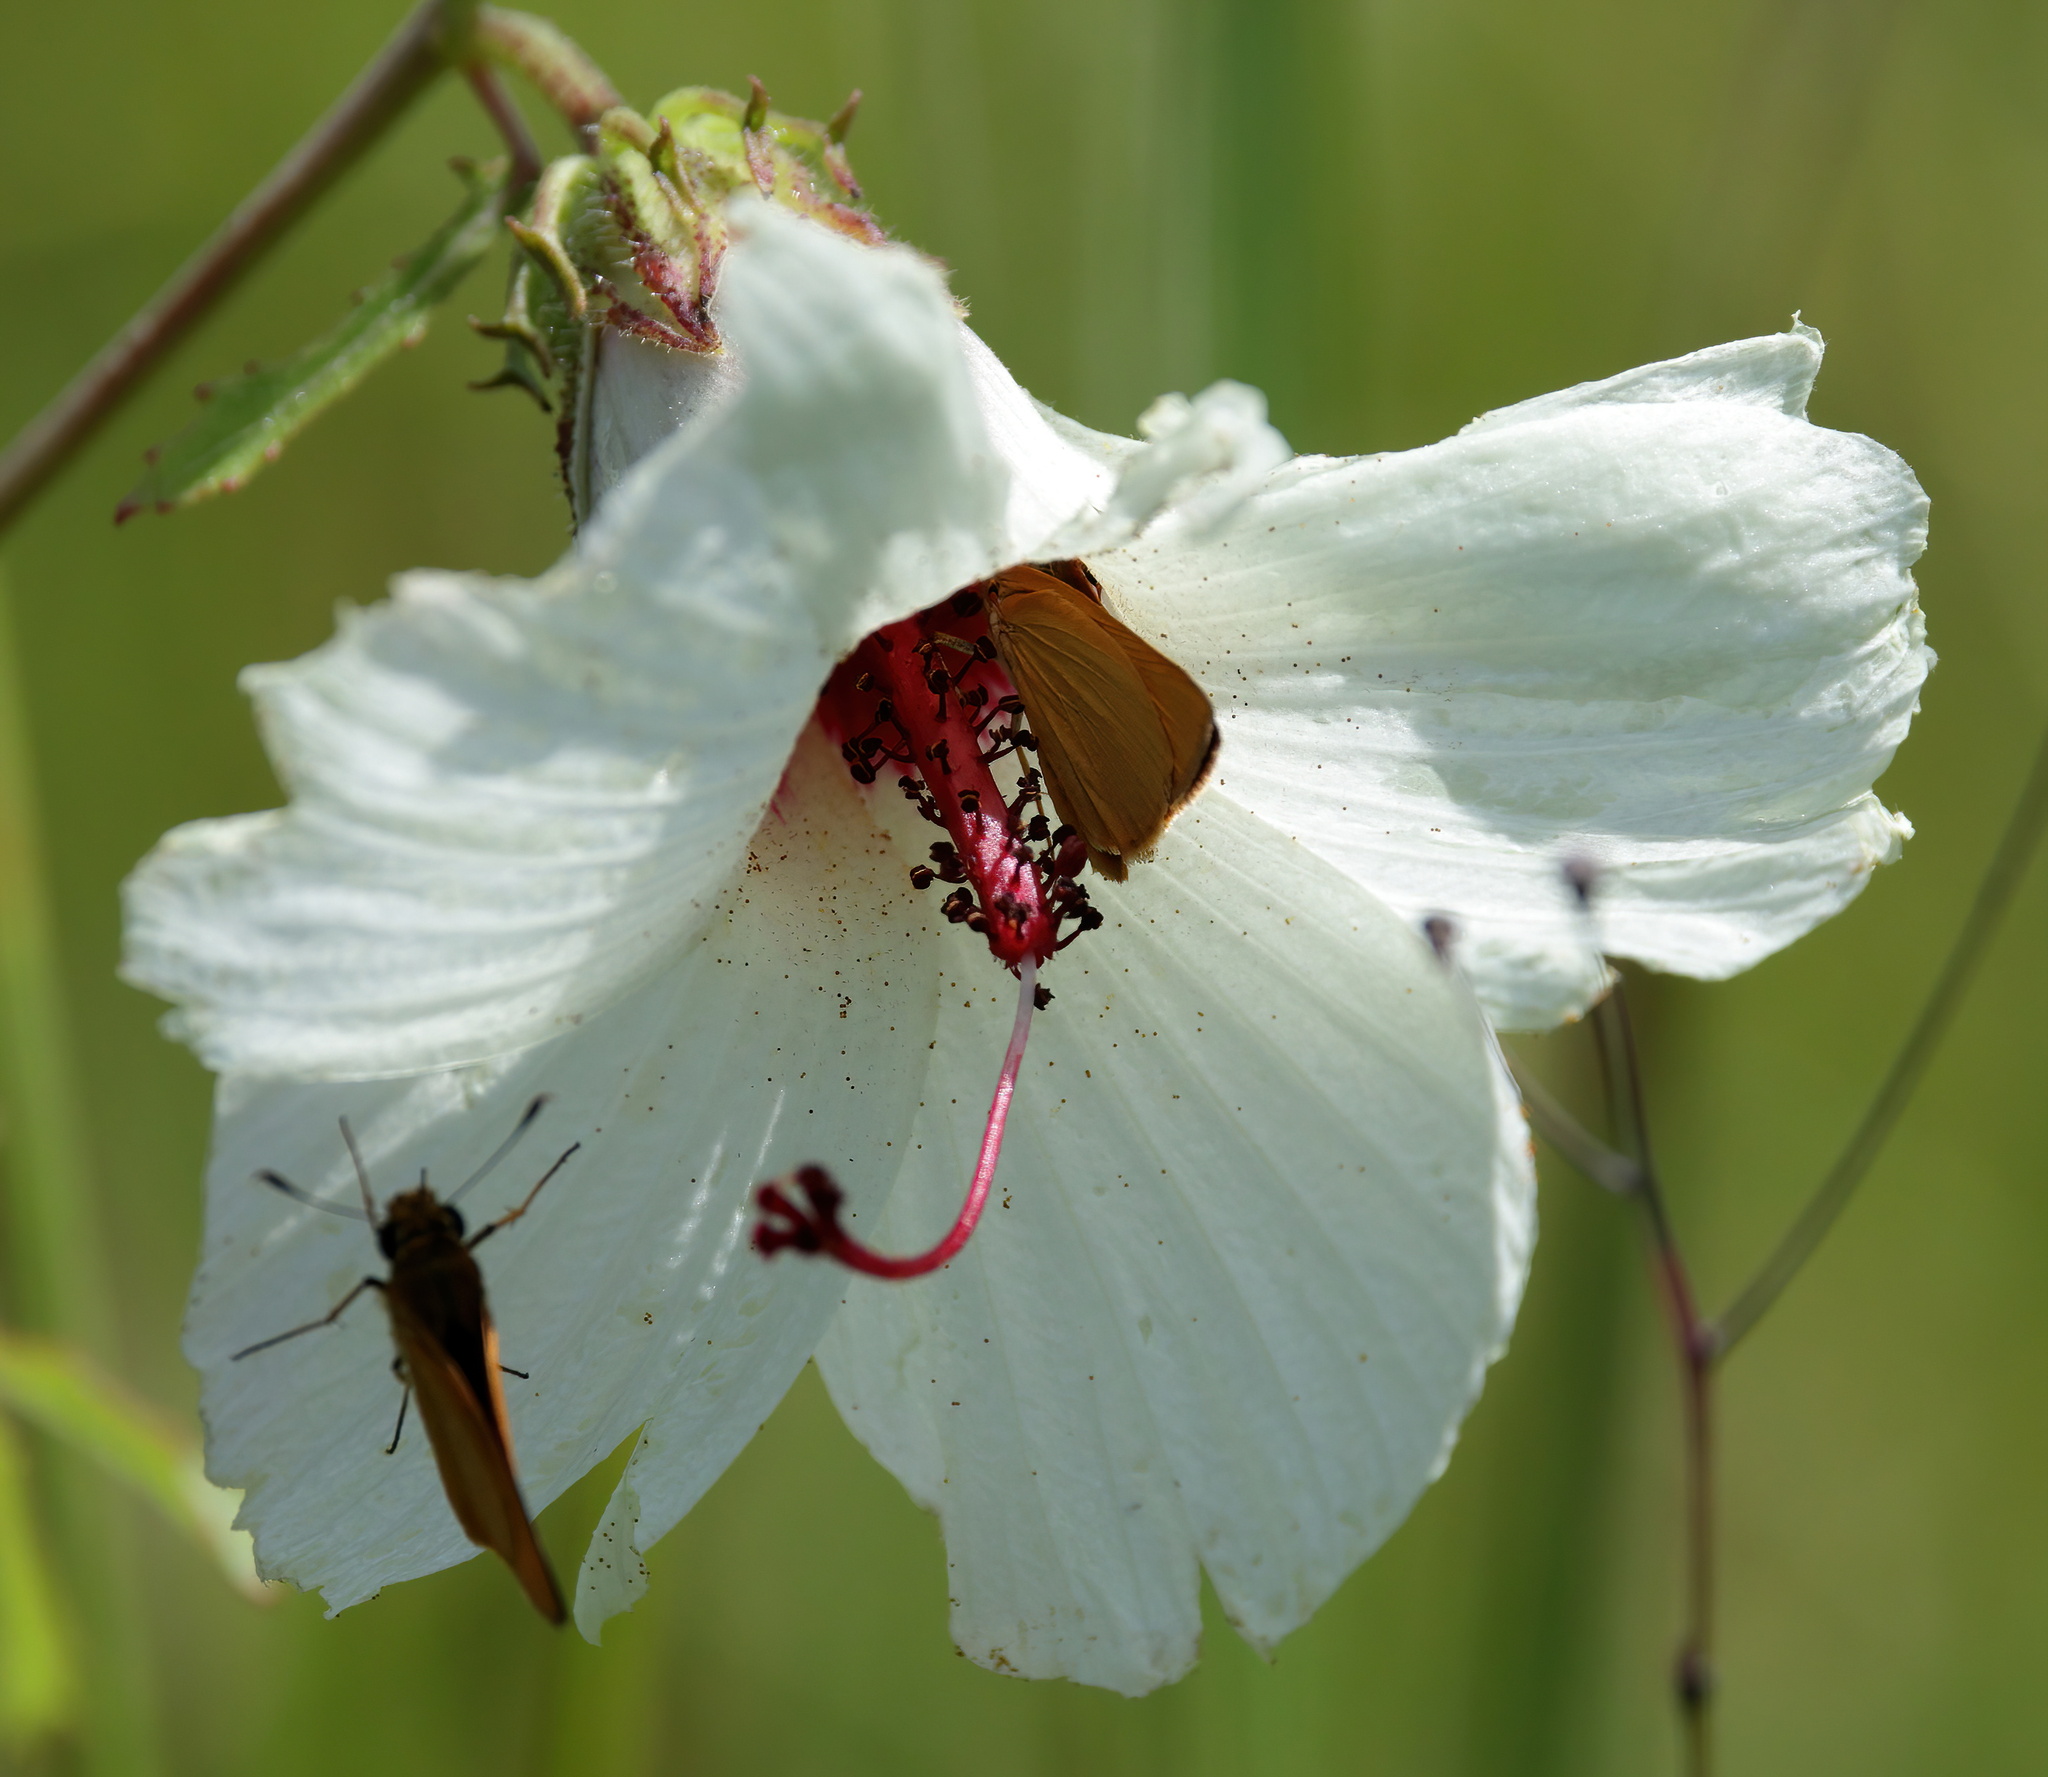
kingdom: Animalia
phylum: Arthropoda
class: Insecta
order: Lepidoptera
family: Hesperiidae
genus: Atrytone
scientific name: Atrytone delaware
